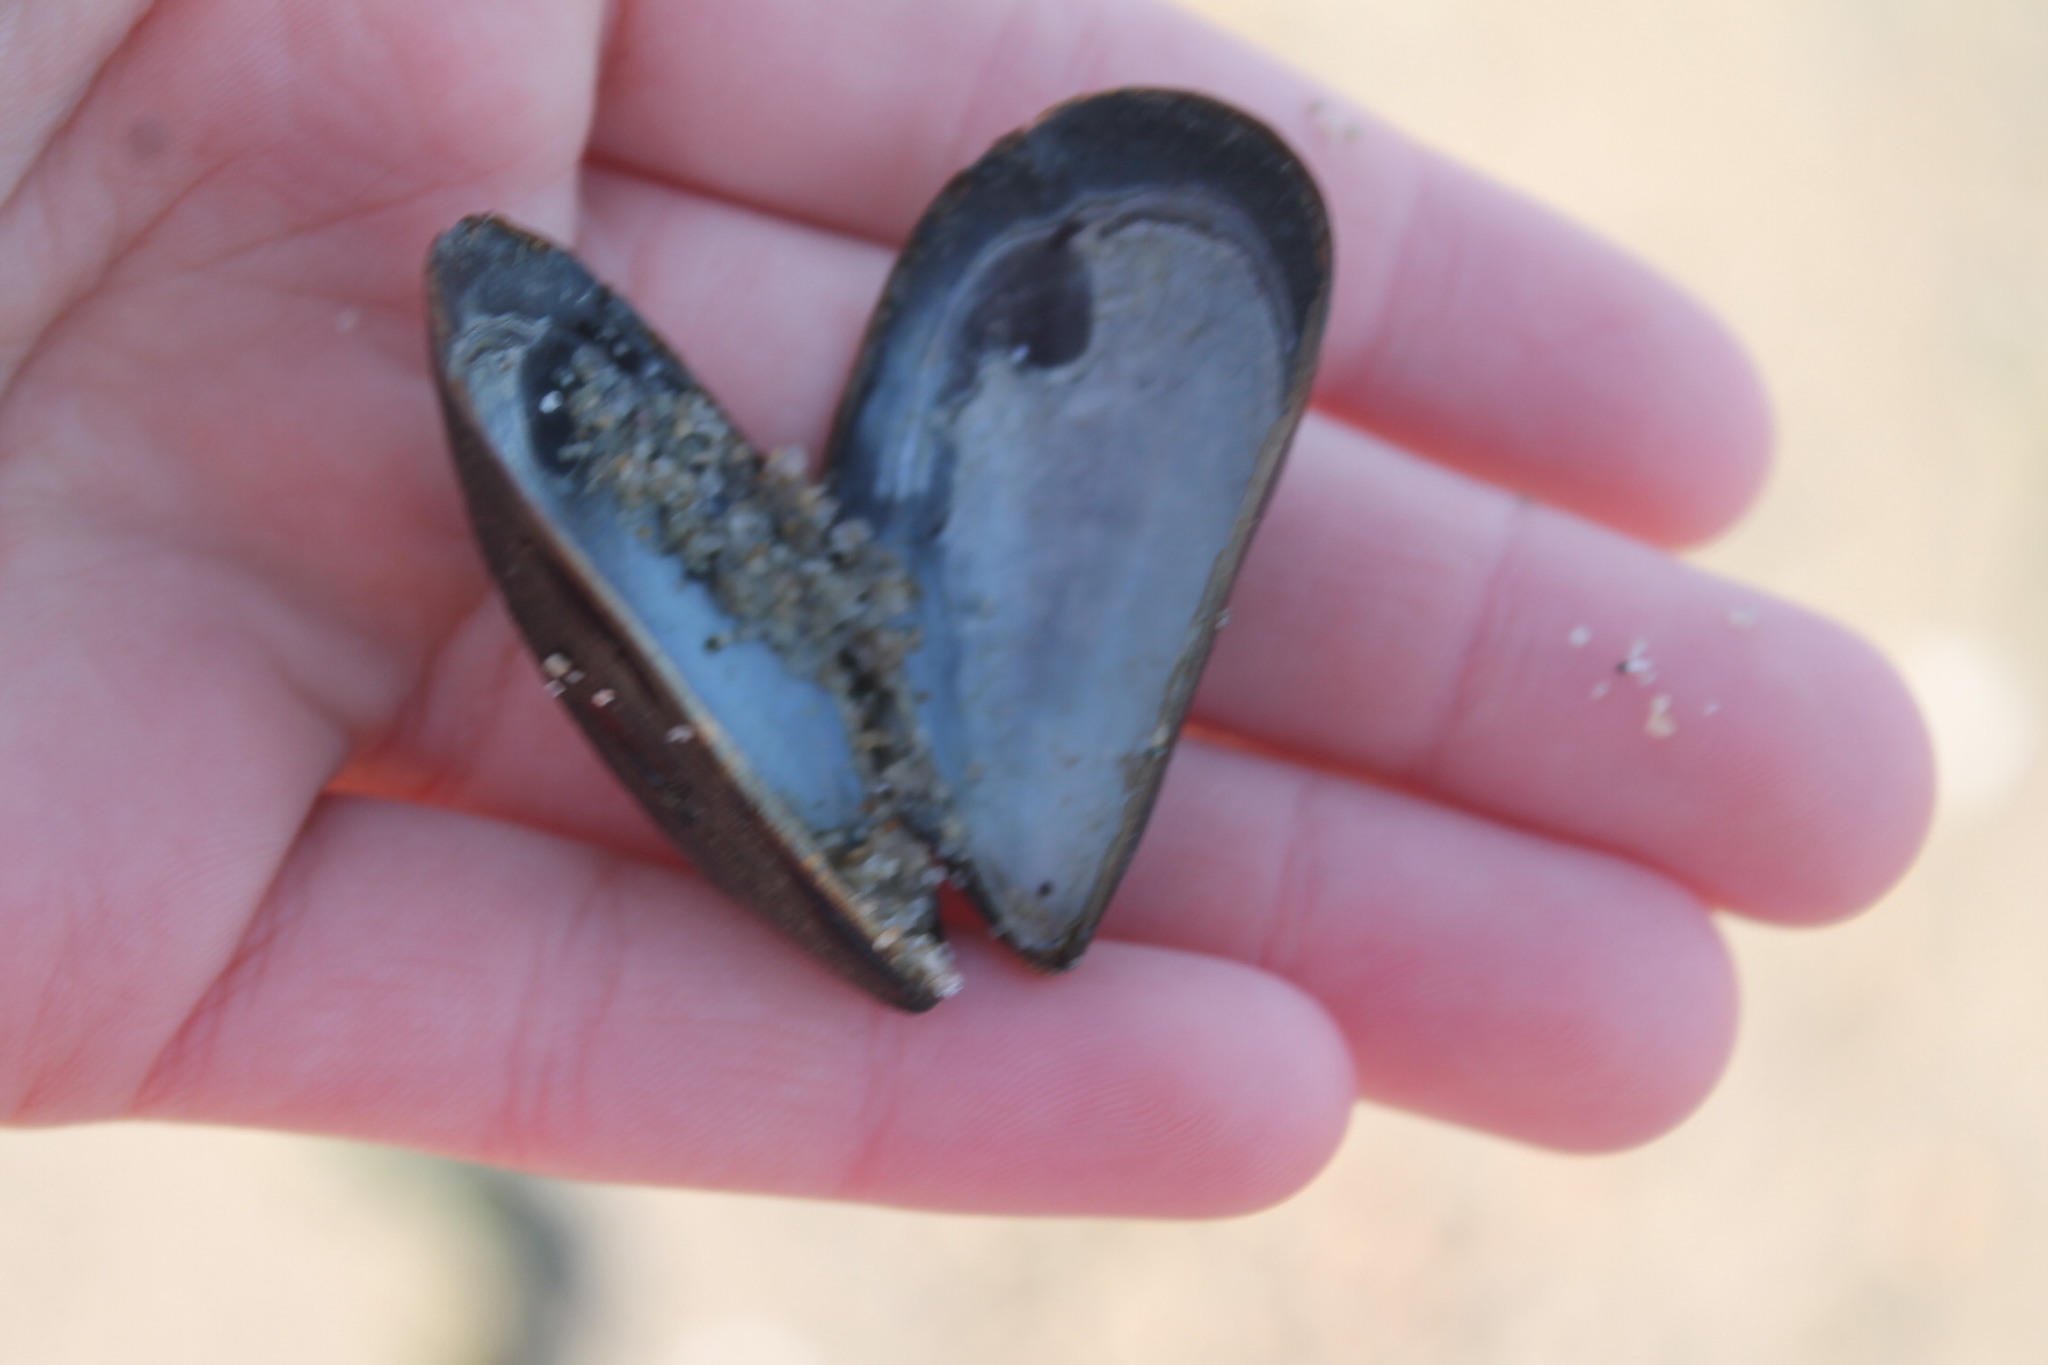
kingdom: Animalia
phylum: Mollusca
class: Bivalvia
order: Mytilida
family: Mytilidae
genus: Mytilus
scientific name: Mytilus edulis
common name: Blue mussel
